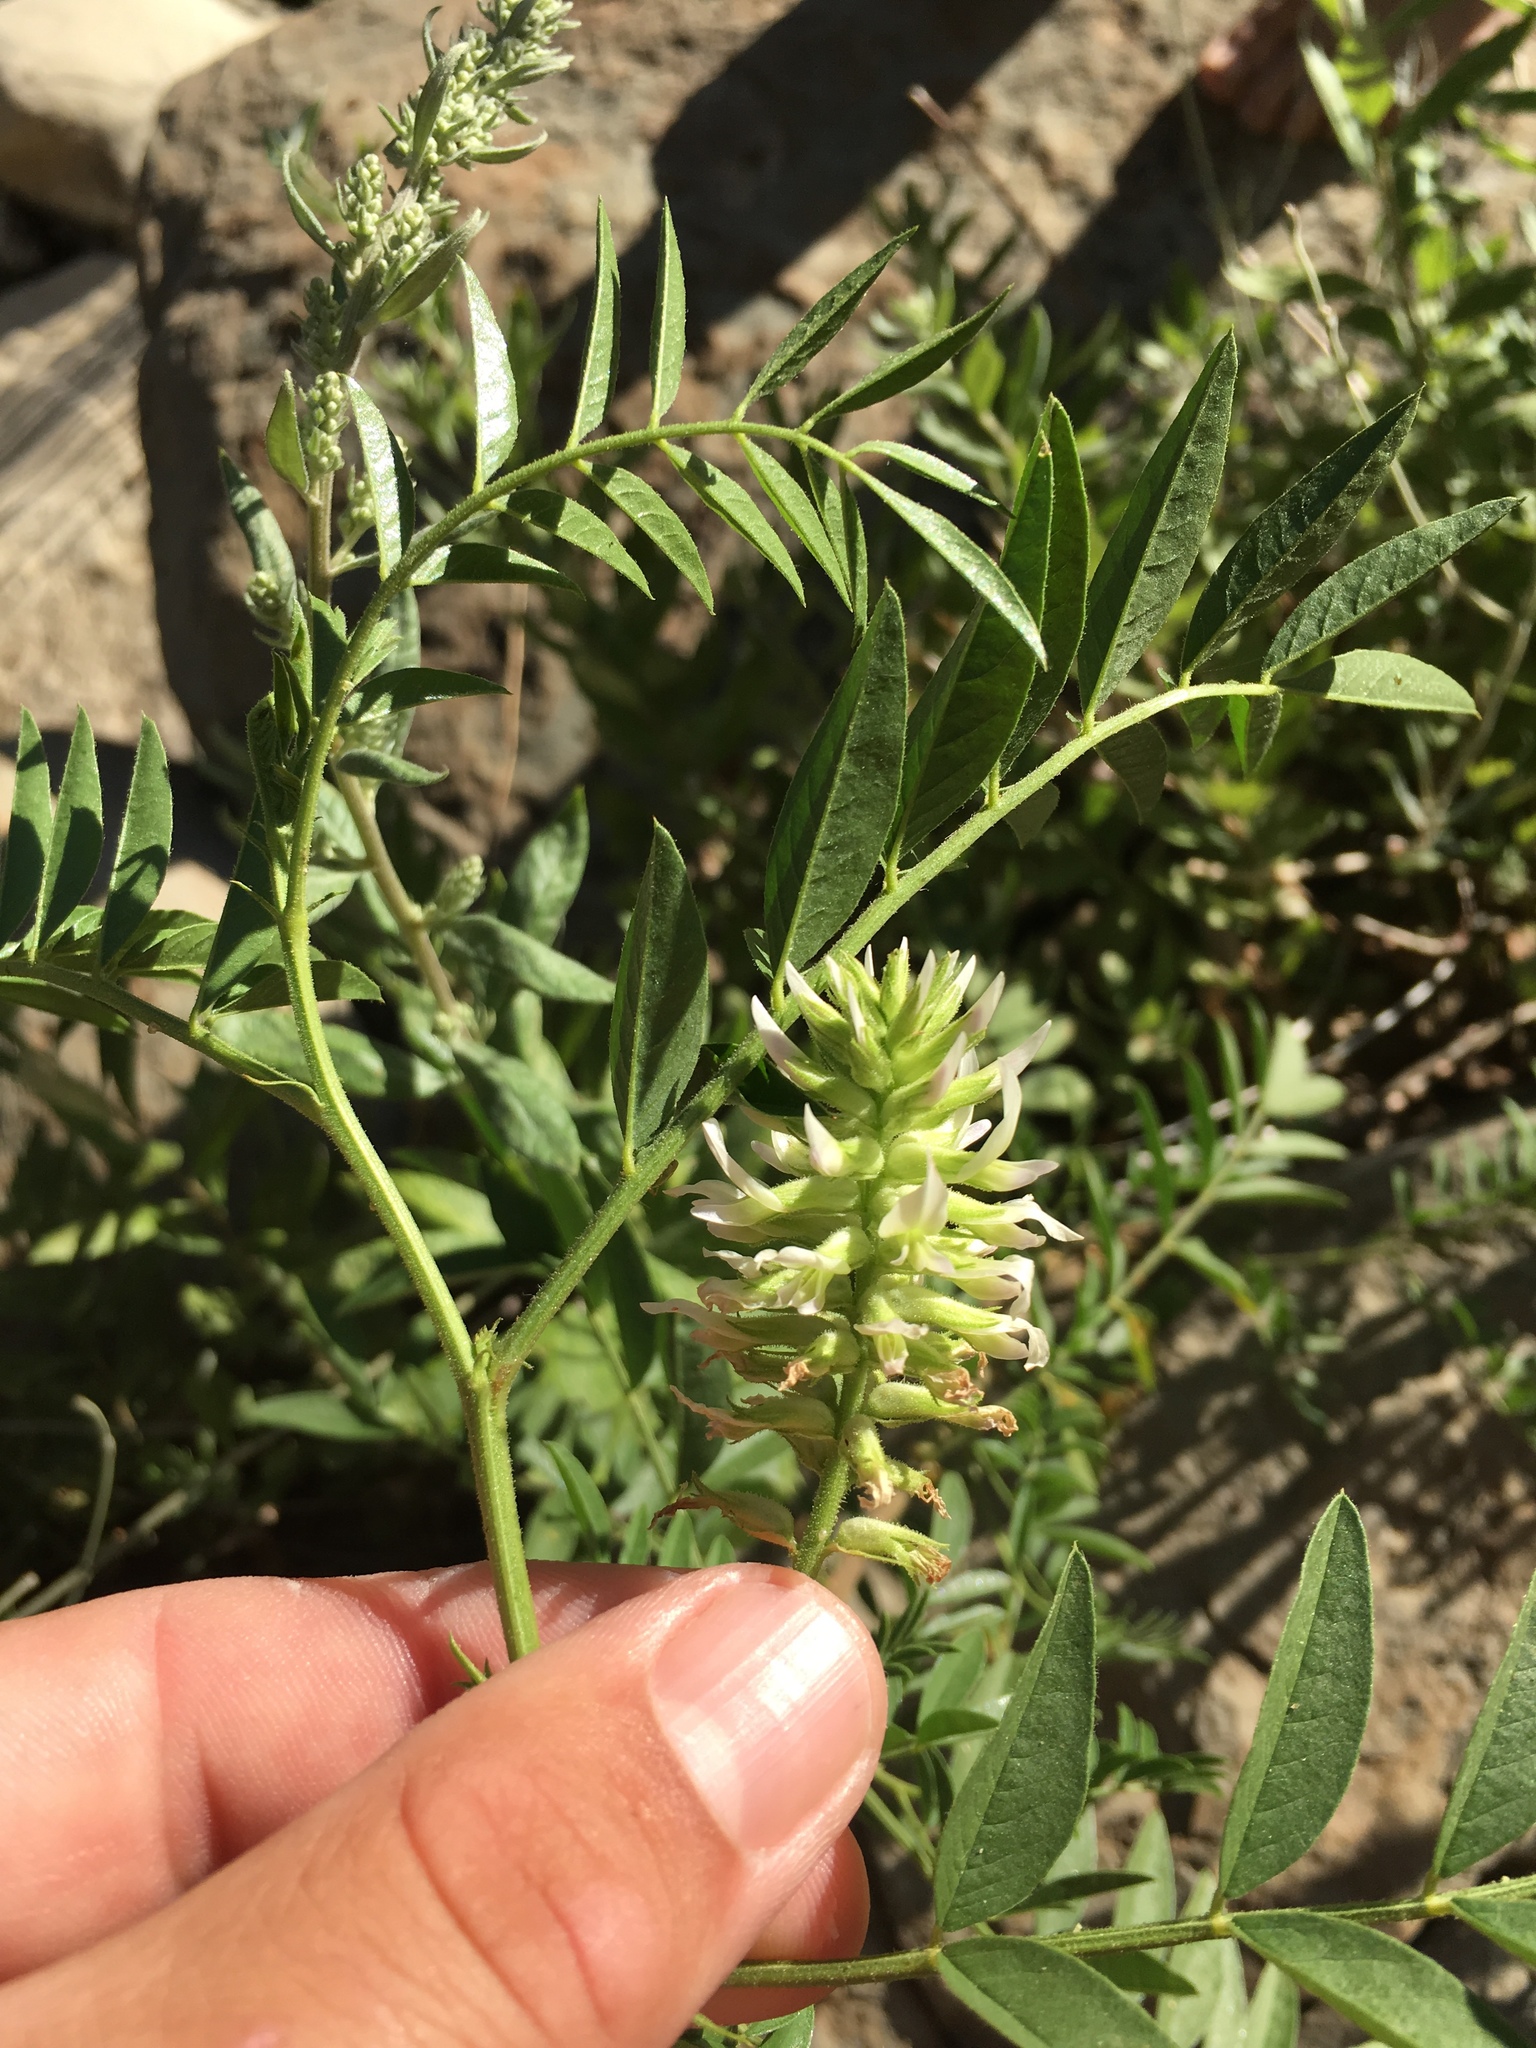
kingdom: Plantae
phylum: Tracheophyta
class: Magnoliopsida
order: Fabales
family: Fabaceae
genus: Glycyrrhiza
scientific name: Glycyrrhiza lepidota
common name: American liquorice
